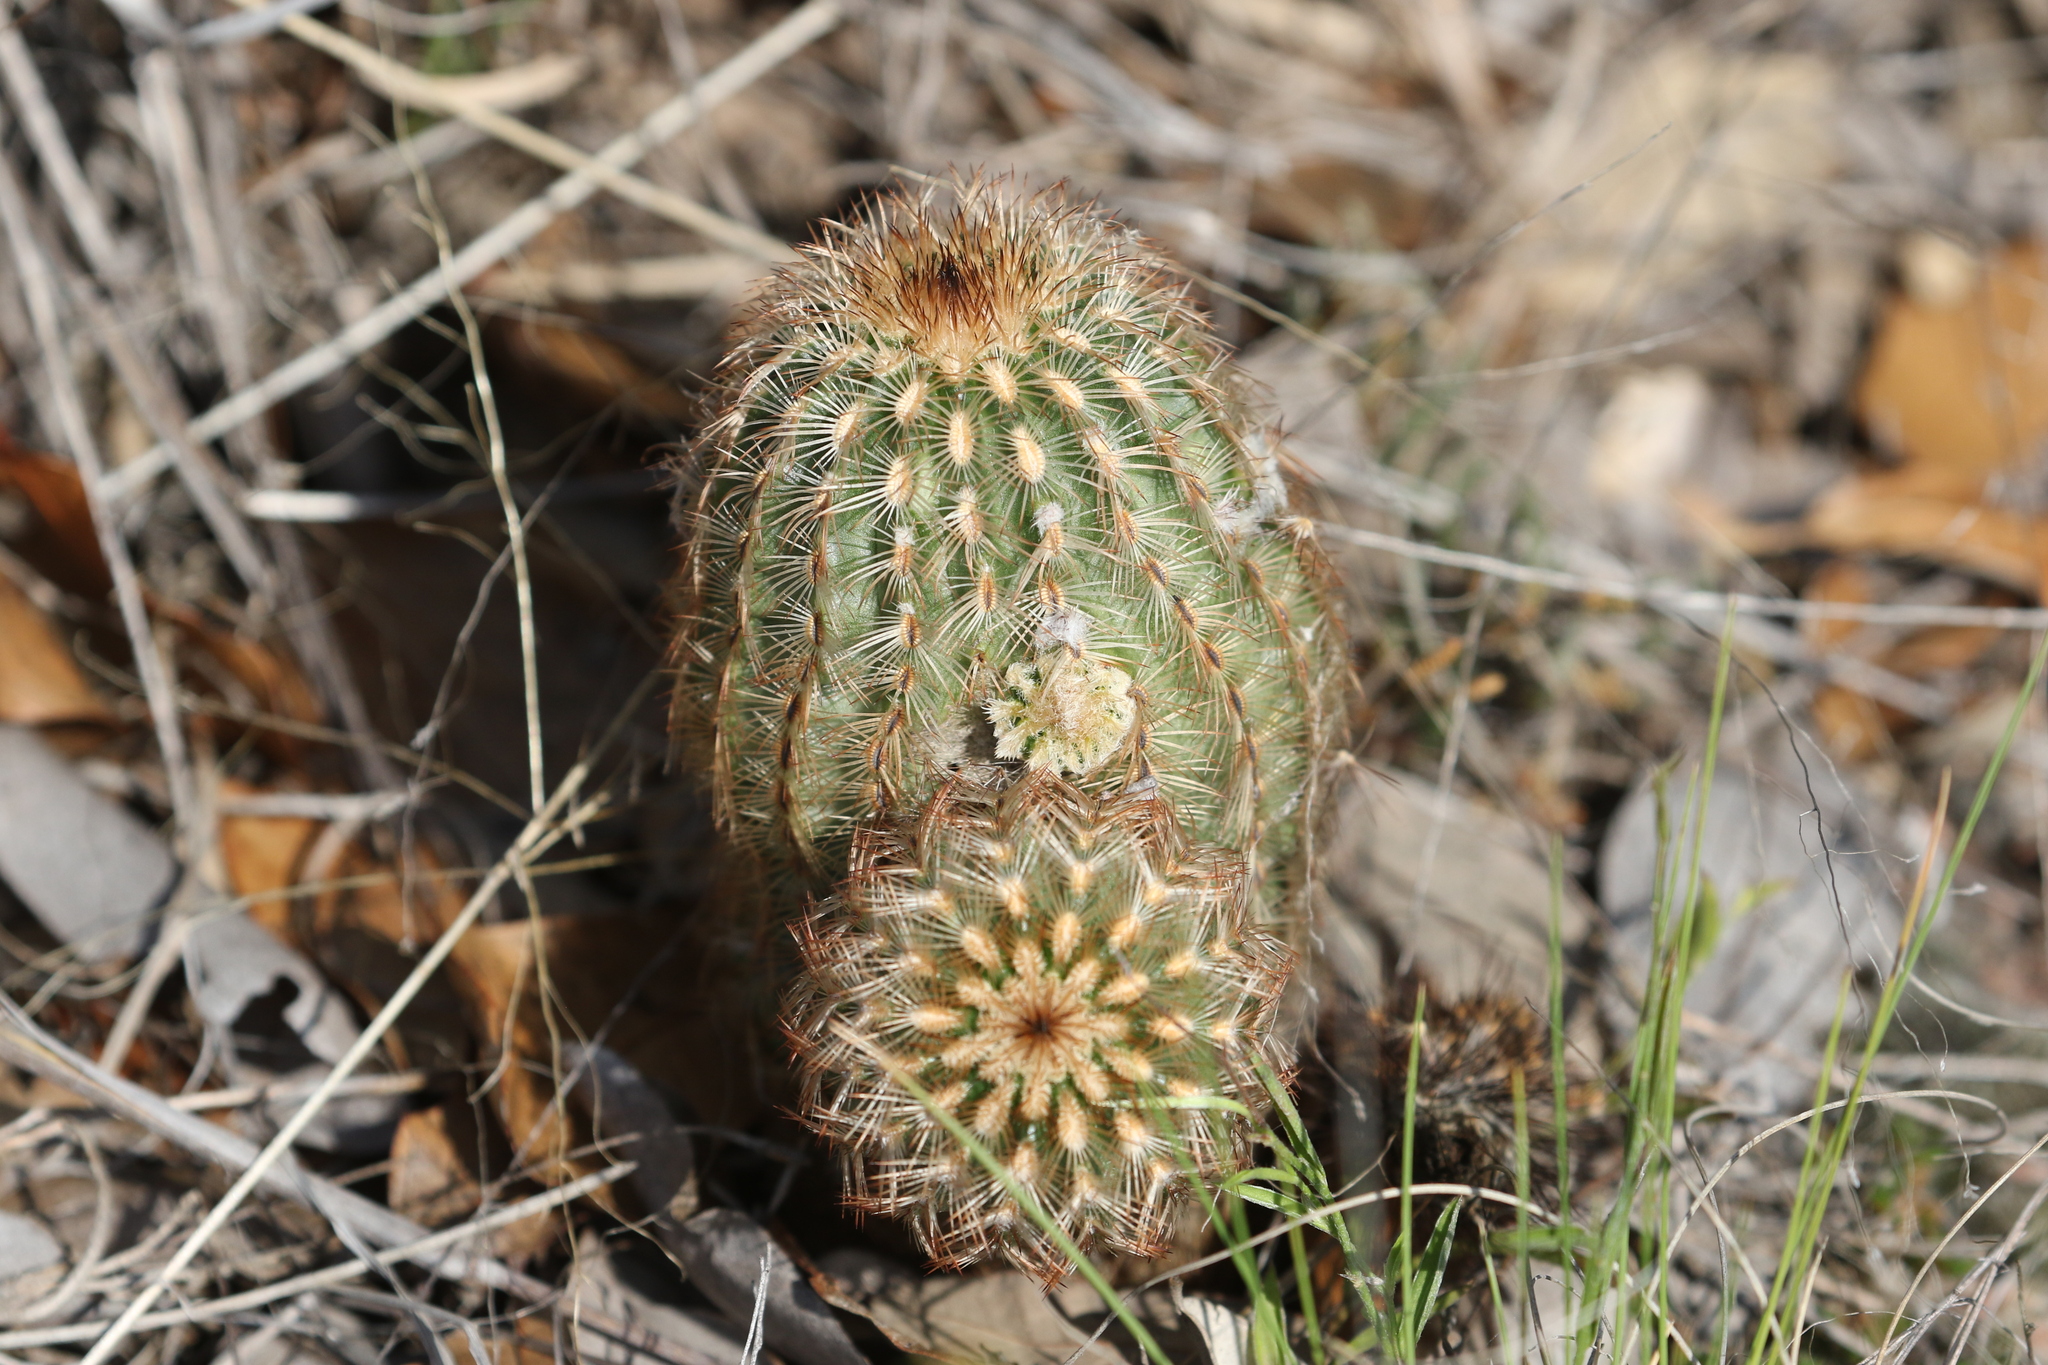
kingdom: Plantae
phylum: Tracheophyta
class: Magnoliopsida
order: Caryophyllales
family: Cactaceae
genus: Echinocereus
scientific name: Echinocereus reichenbachii
